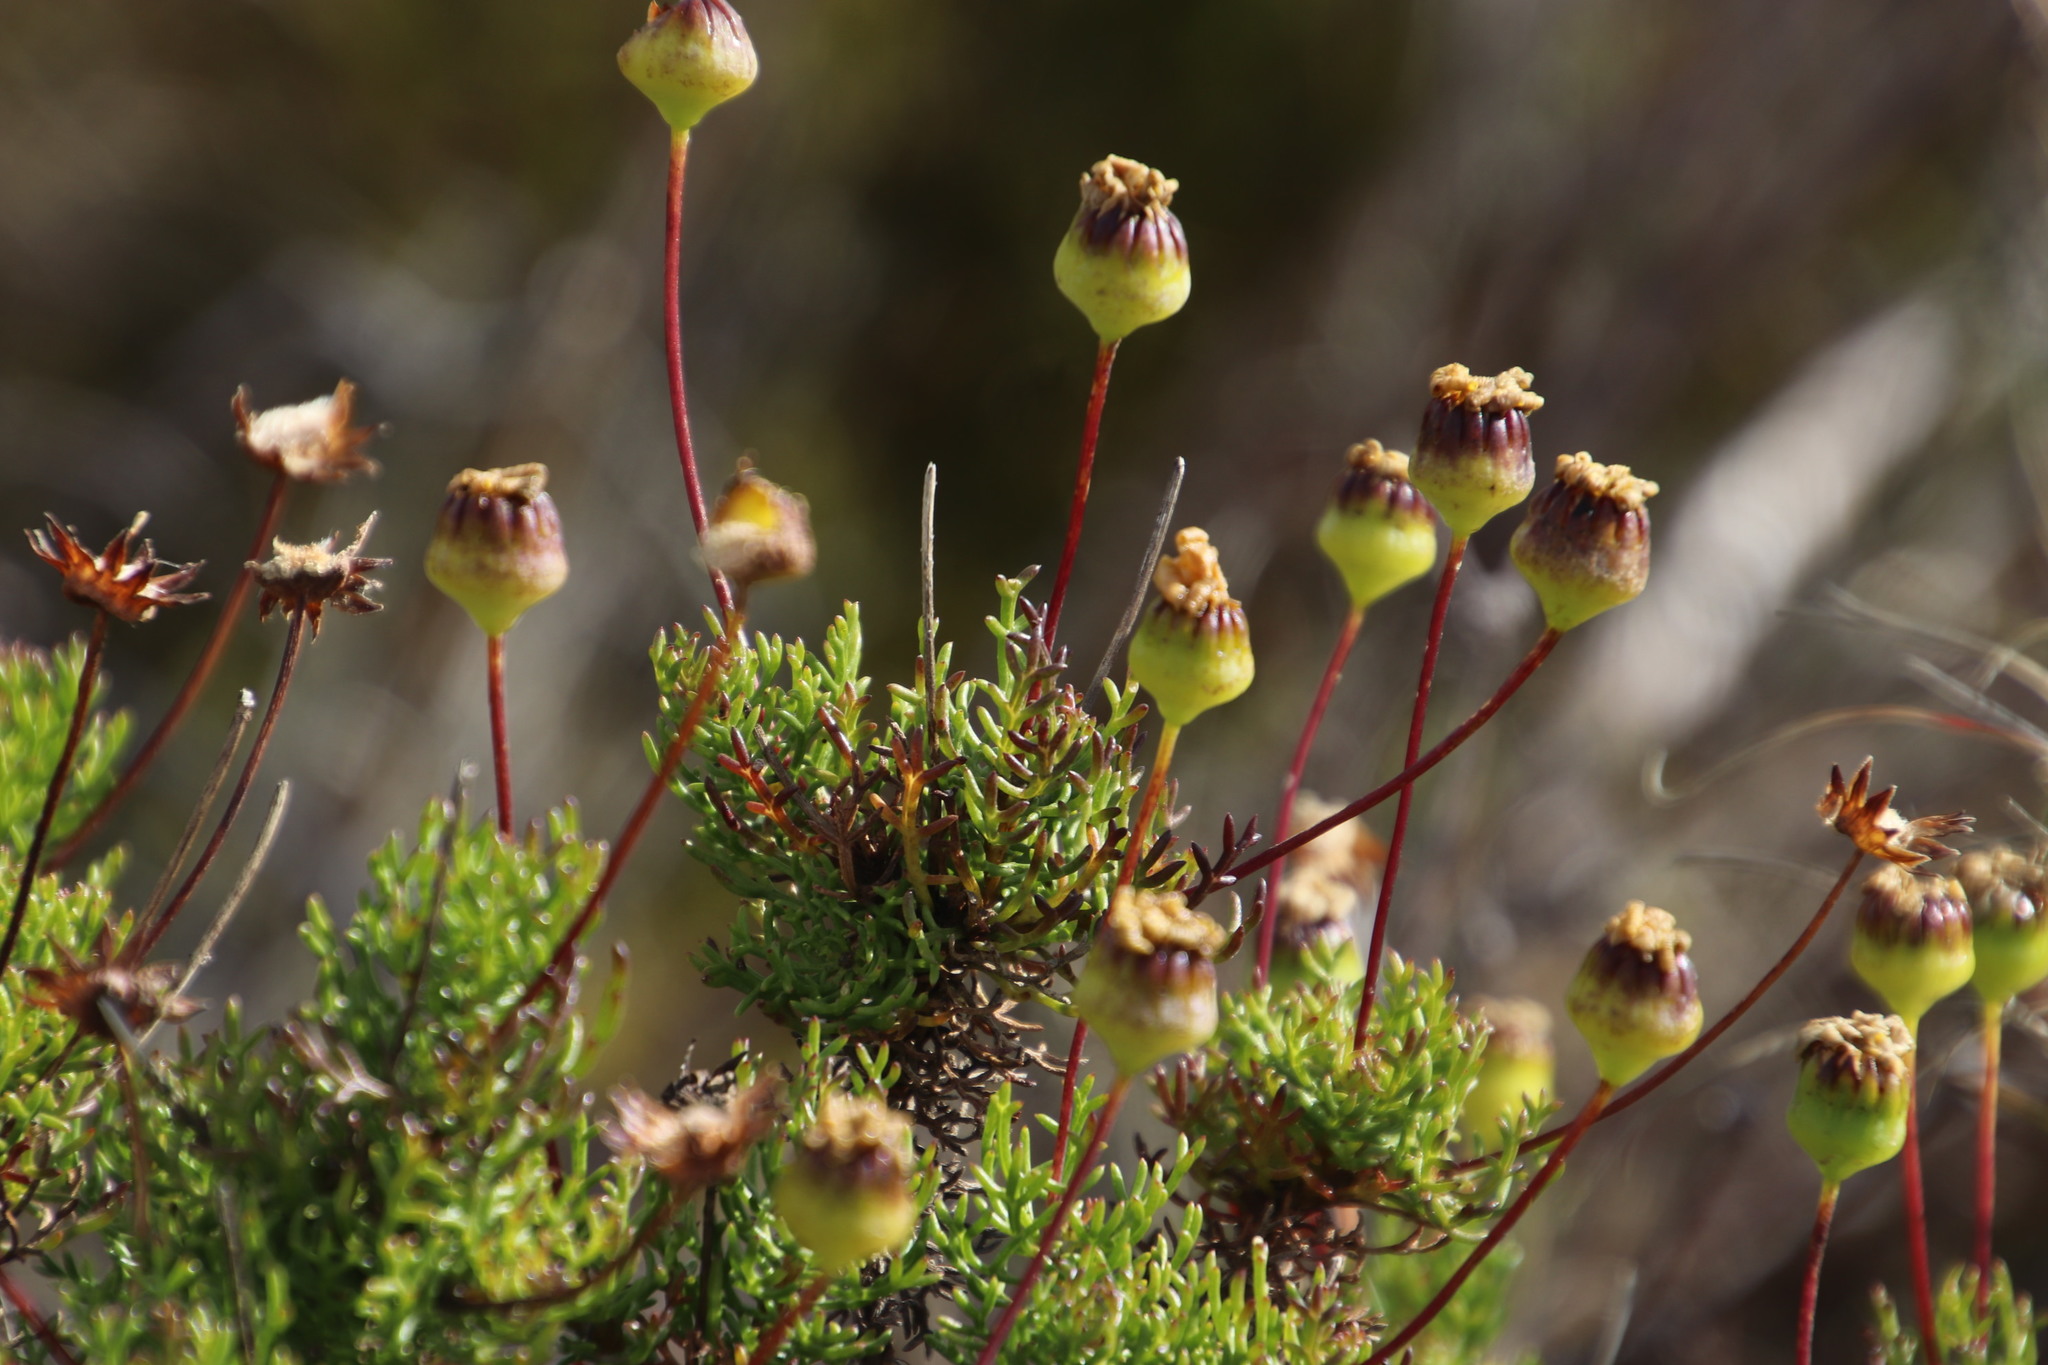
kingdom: Plantae
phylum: Tracheophyta
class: Magnoliopsida
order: Asterales
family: Asteraceae
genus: Euryops
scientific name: Euryops abrotanifolius
